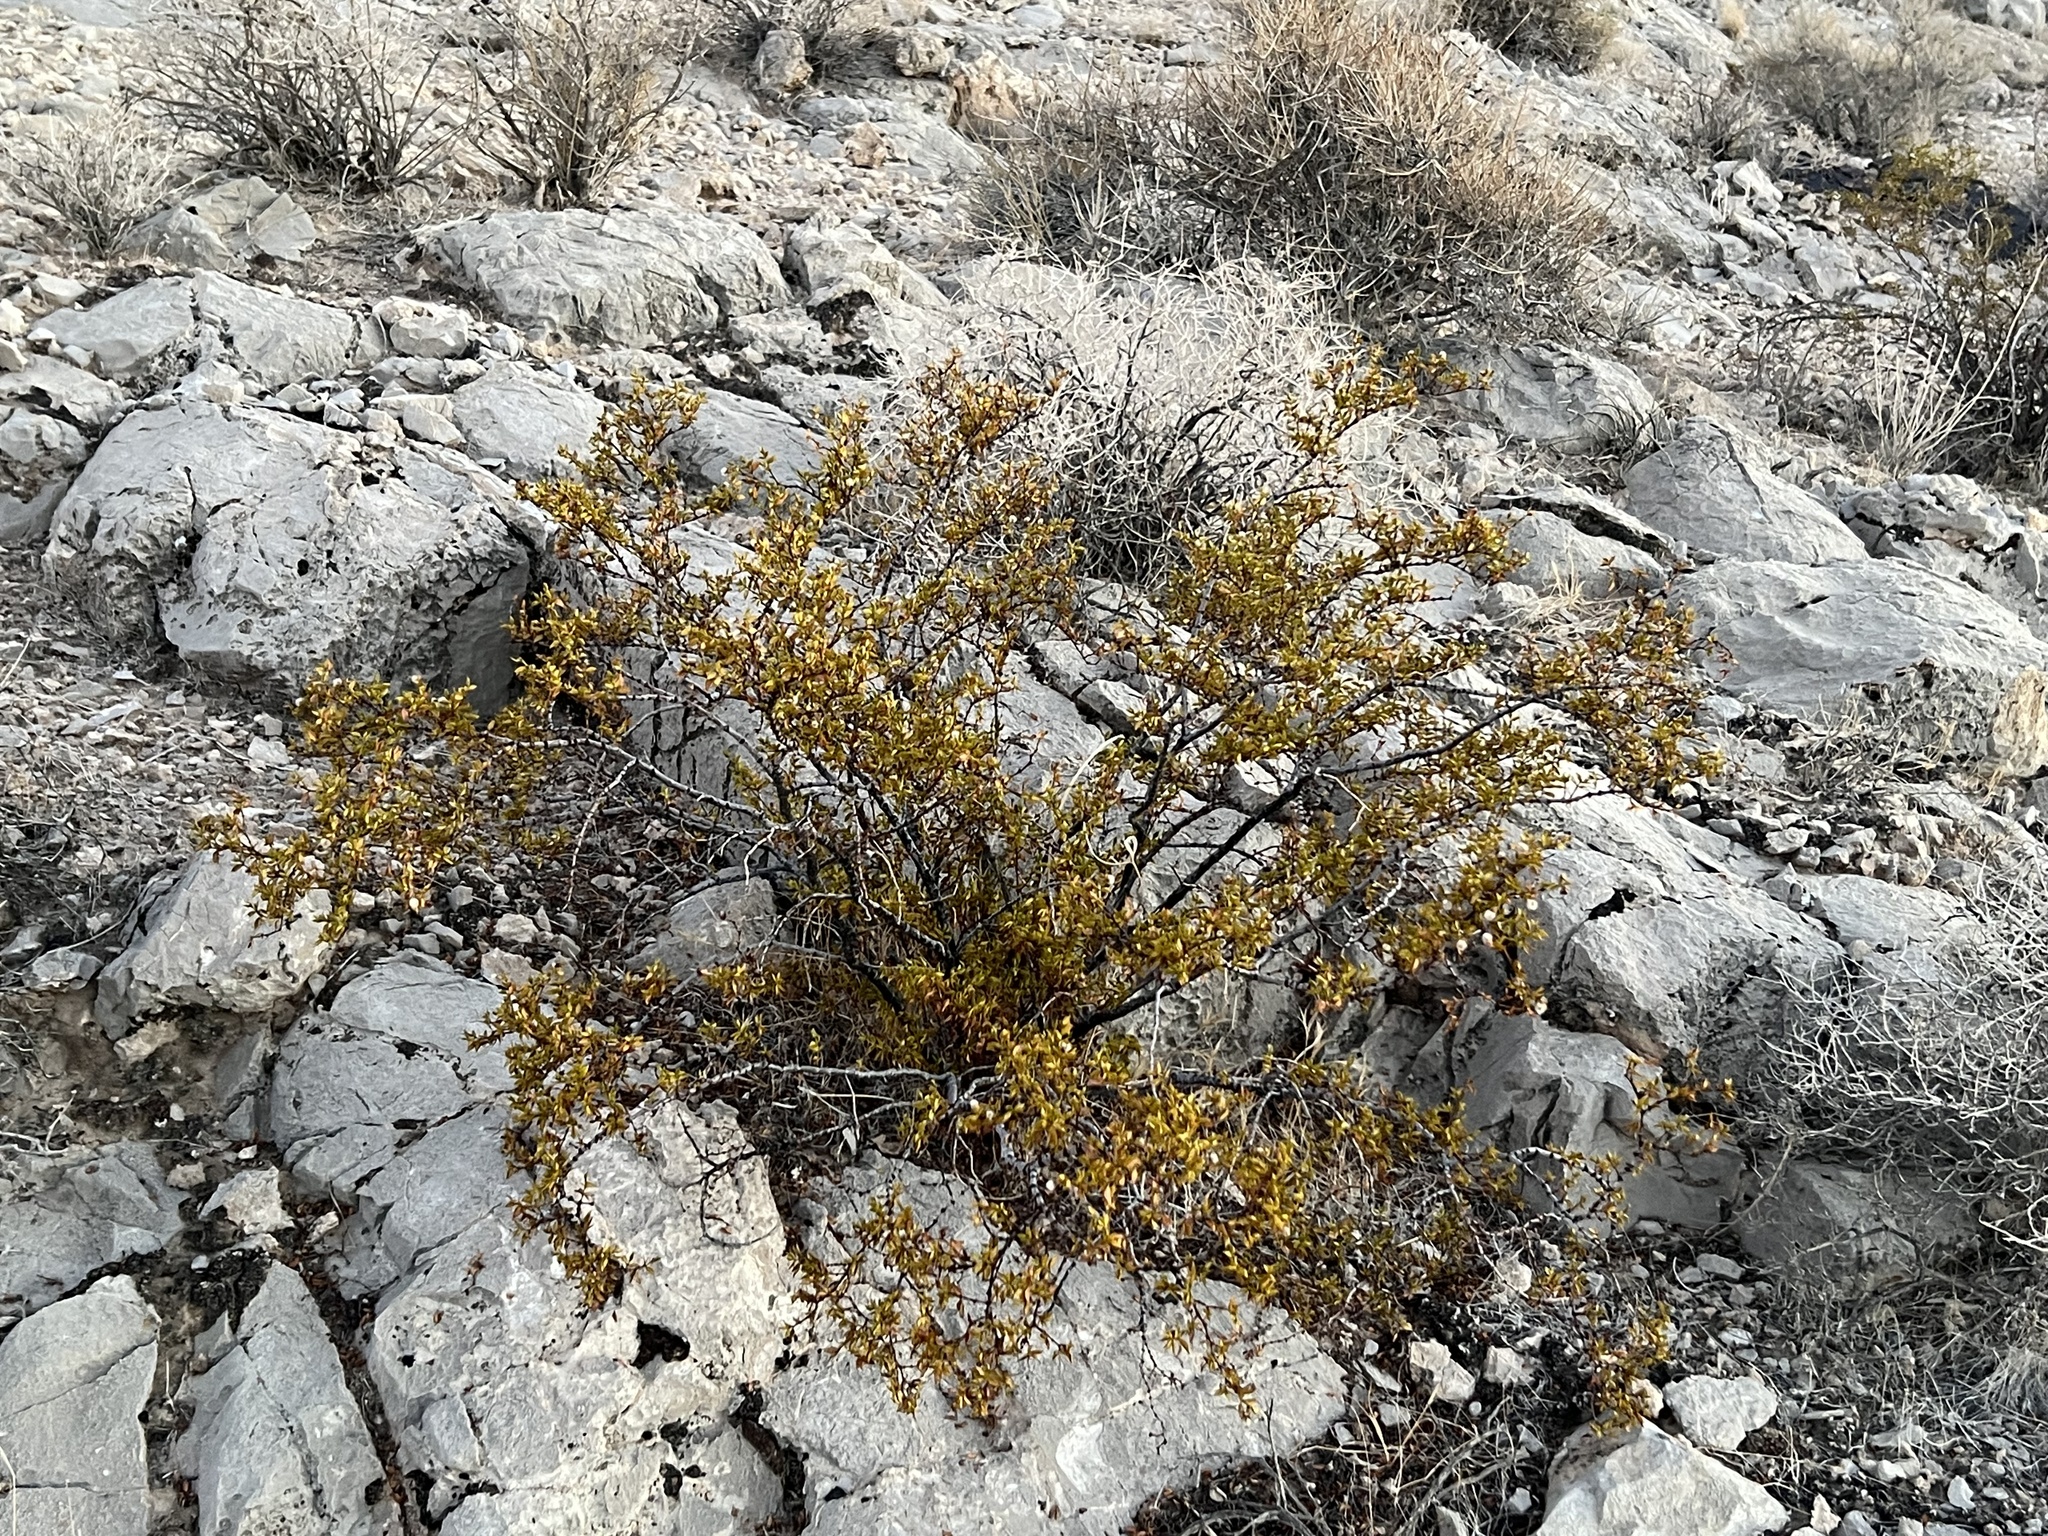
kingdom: Plantae
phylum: Tracheophyta
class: Magnoliopsida
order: Zygophyllales
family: Zygophyllaceae
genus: Larrea
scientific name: Larrea tridentata
